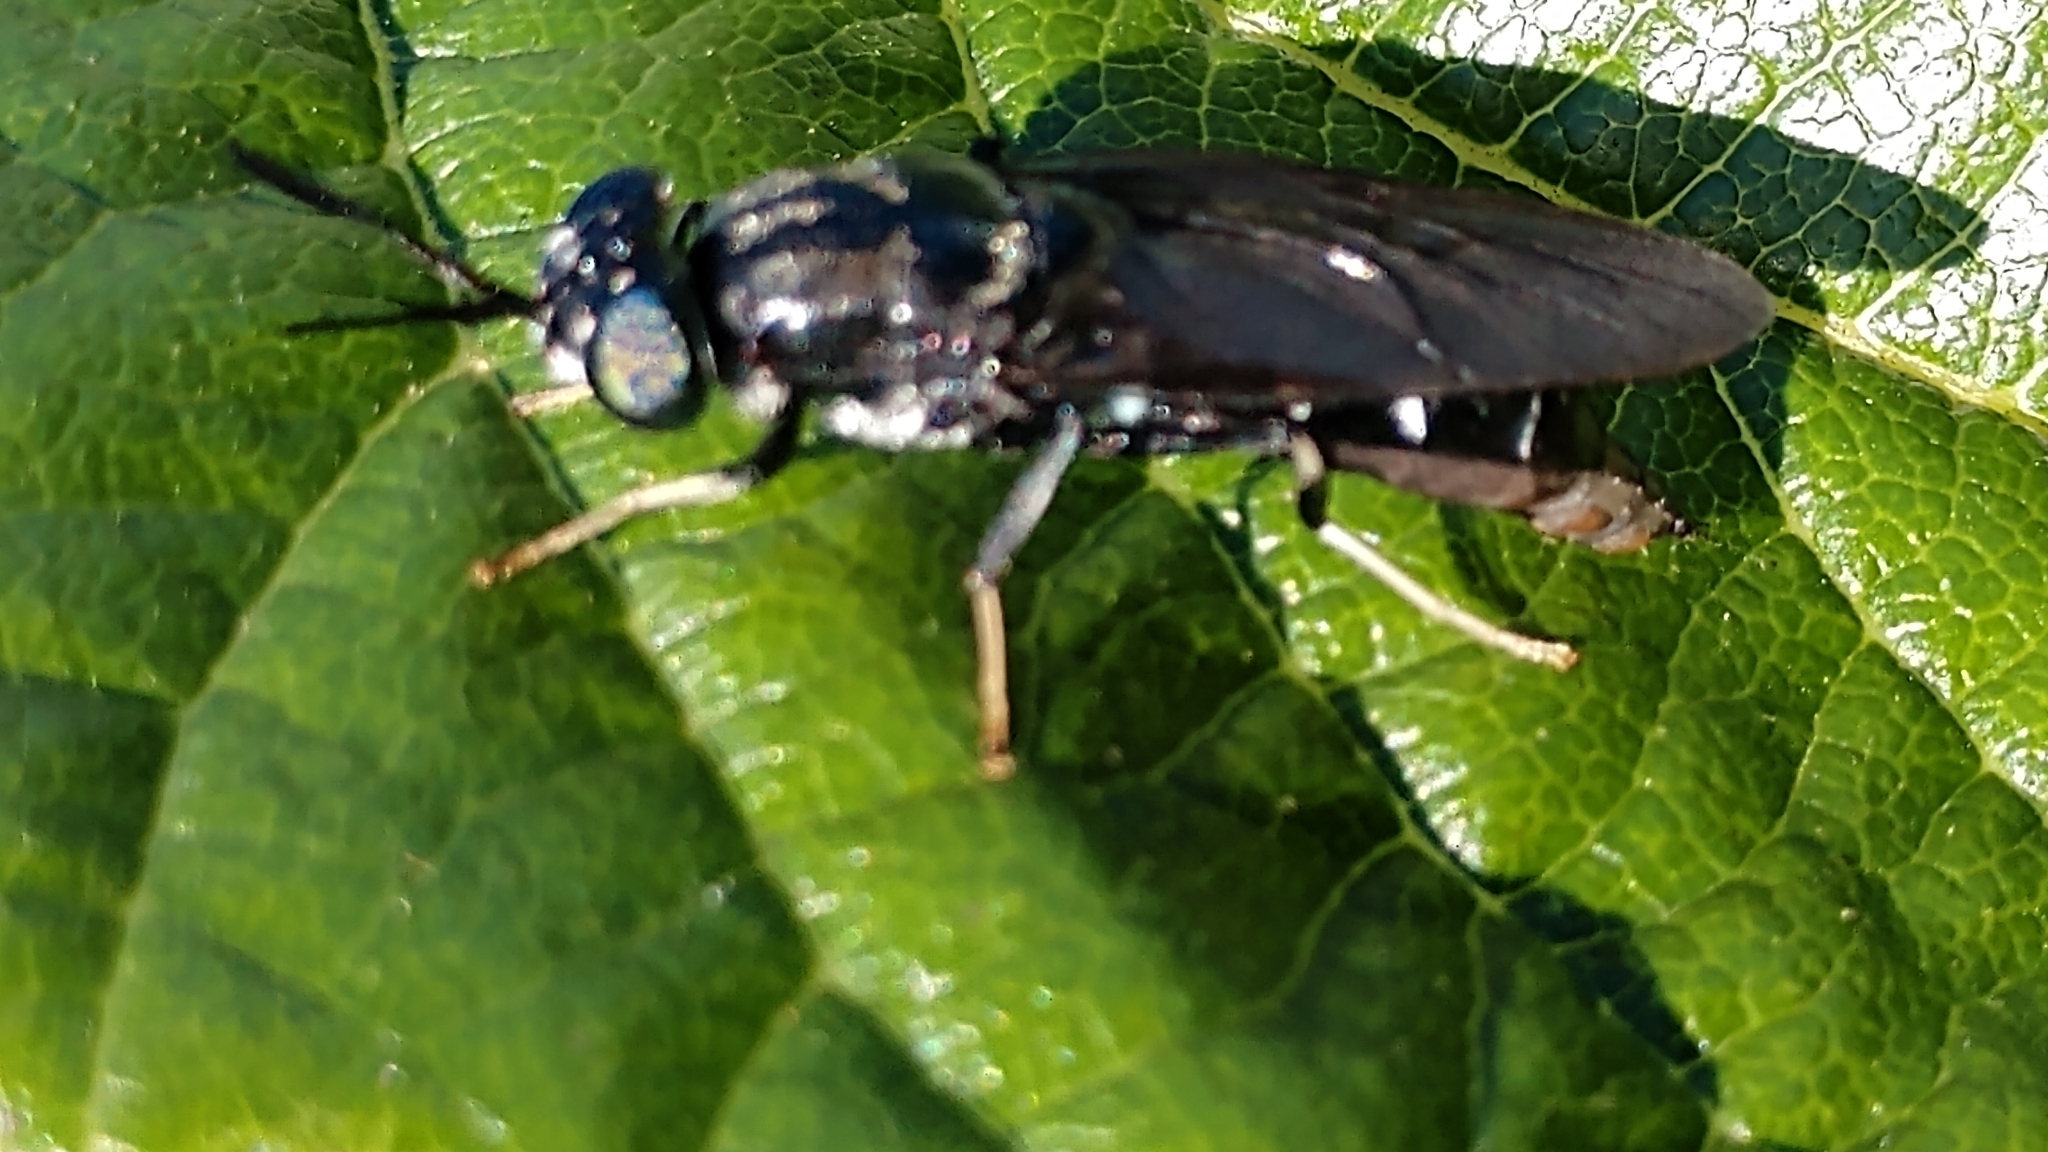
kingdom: Animalia
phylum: Arthropoda
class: Insecta
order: Diptera
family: Stratiomyidae
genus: Hermetia
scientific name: Hermetia illucens
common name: Black soldier fly
